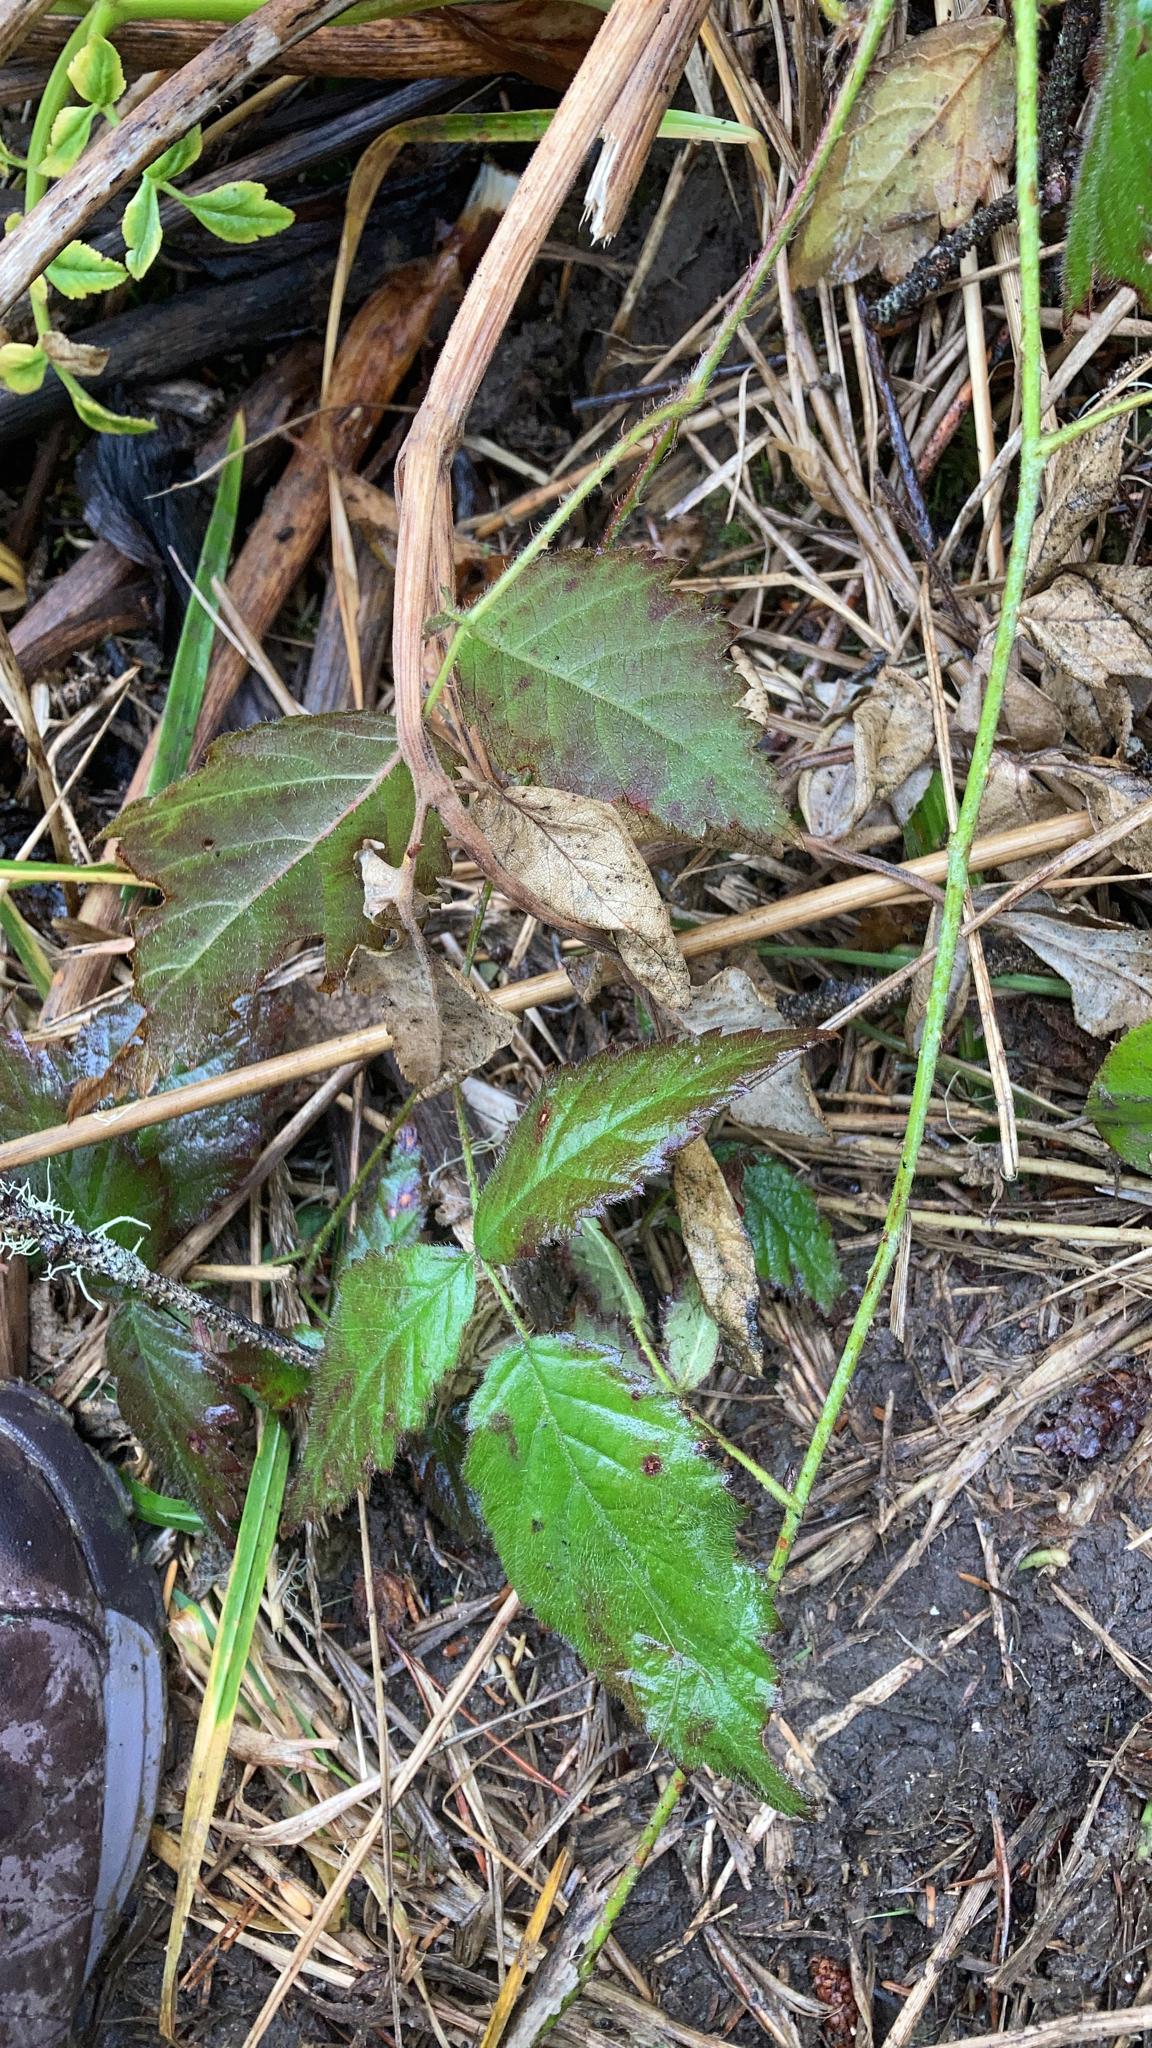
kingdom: Plantae
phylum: Tracheophyta
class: Magnoliopsida
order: Rosales
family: Rosaceae
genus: Rubus
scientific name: Rubus ursinus
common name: Pacific blackberry
